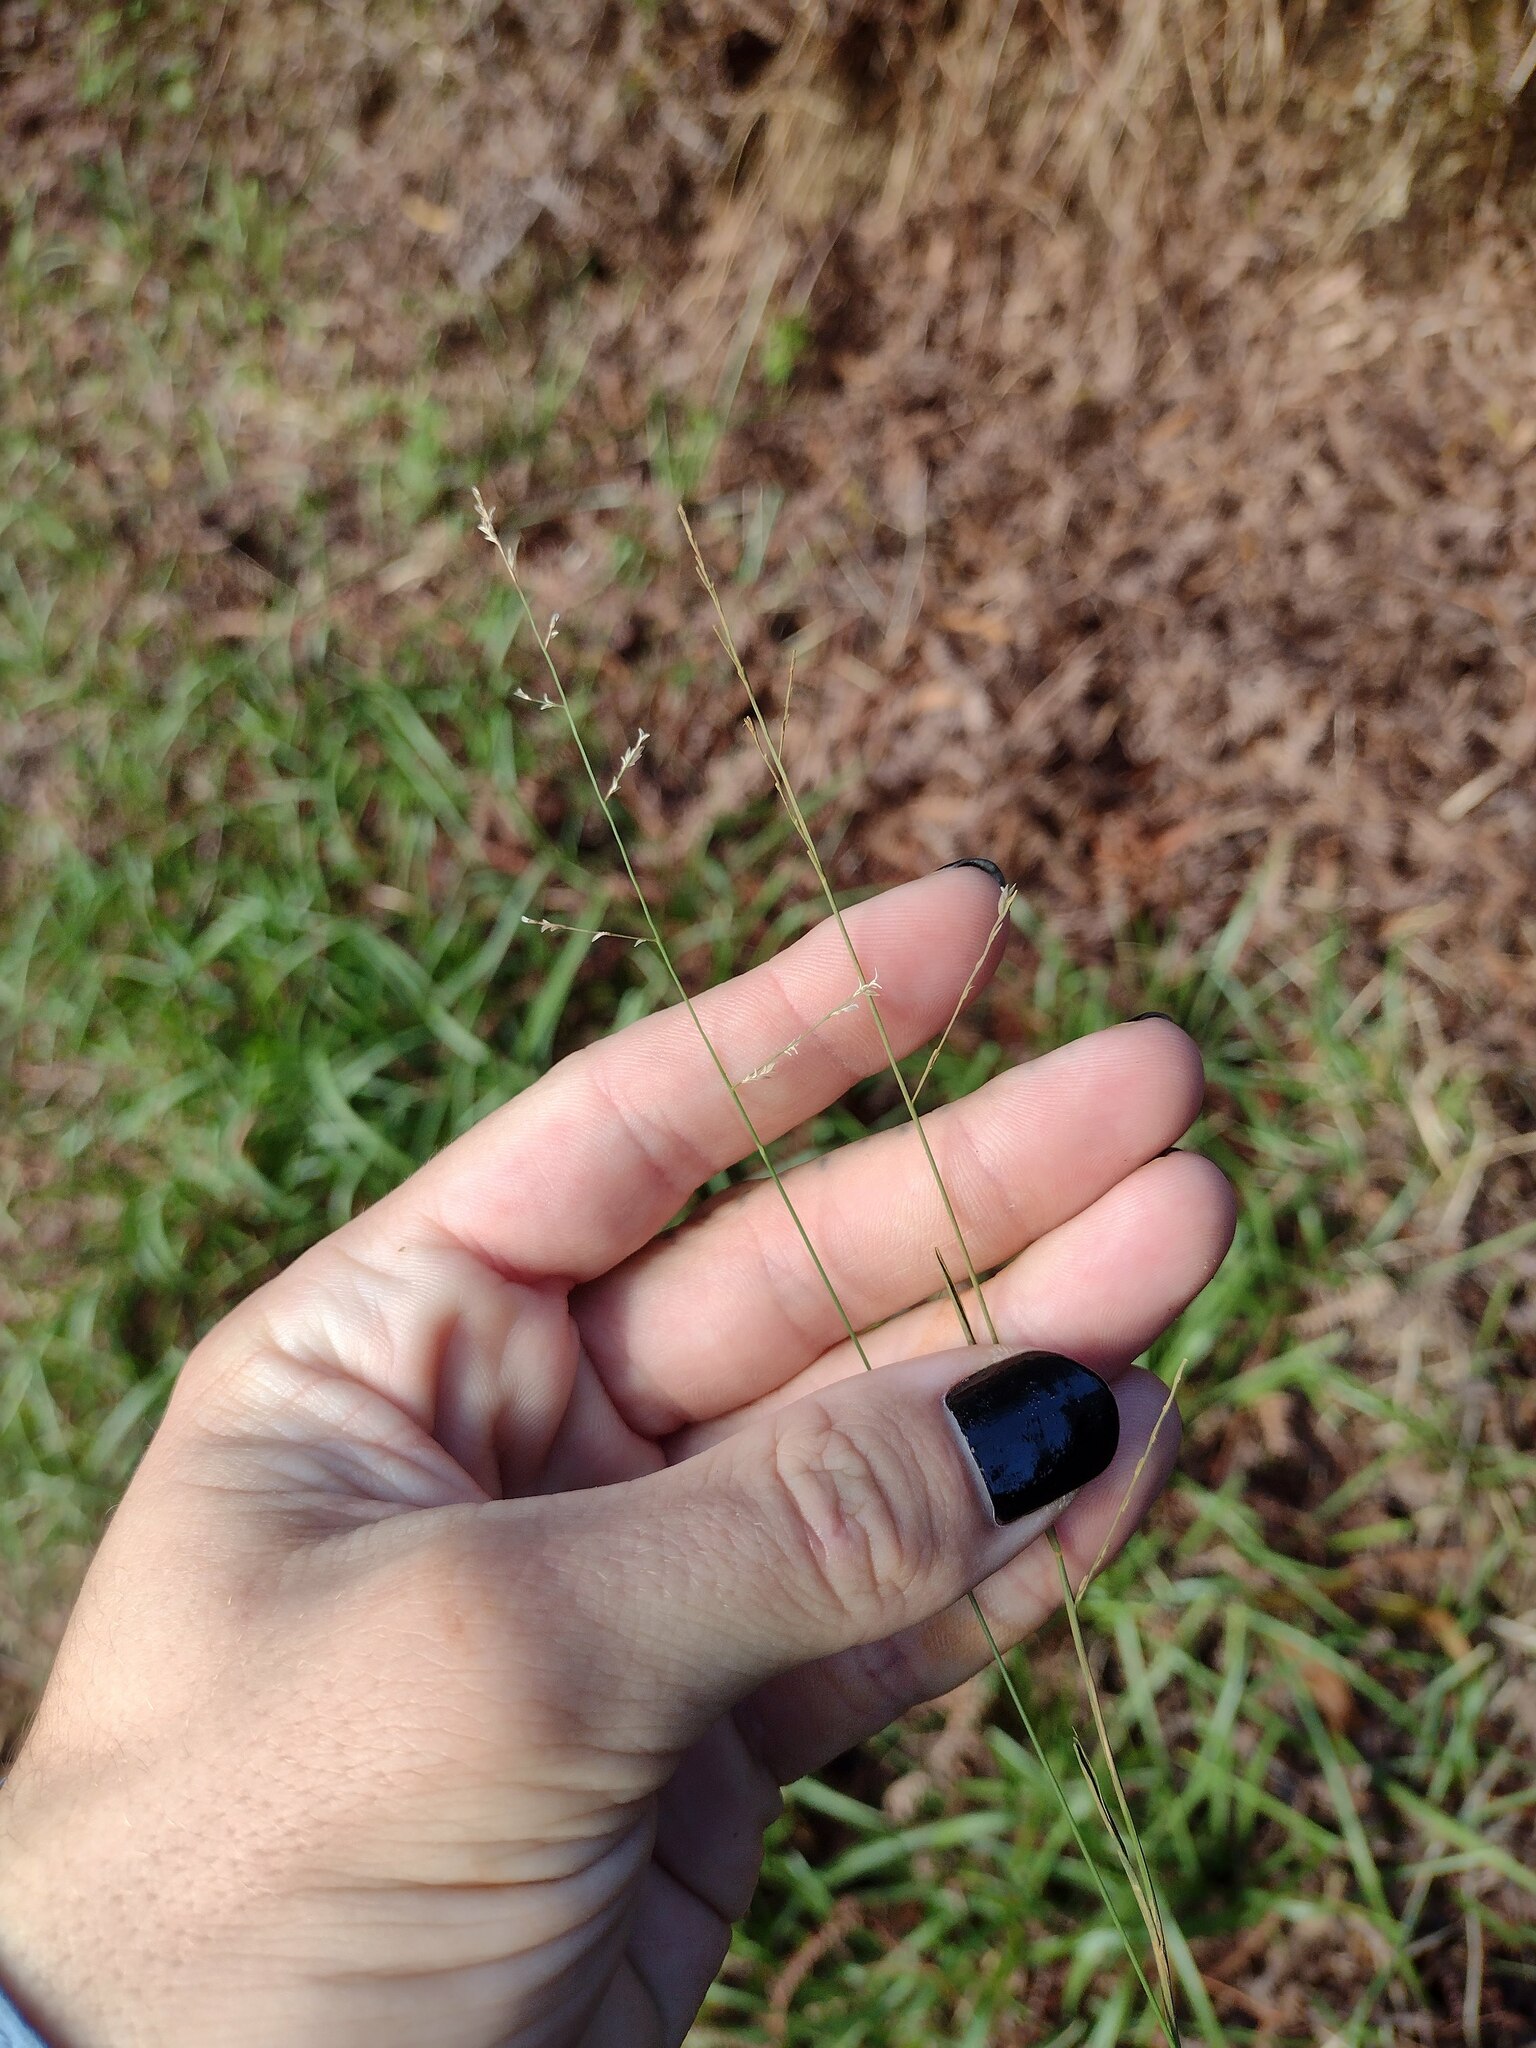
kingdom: Plantae
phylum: Tracheophyta
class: Liliopsida
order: Poales
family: Poaceae
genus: Eragrostis
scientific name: Eragrostis brownii
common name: Lovegrass
